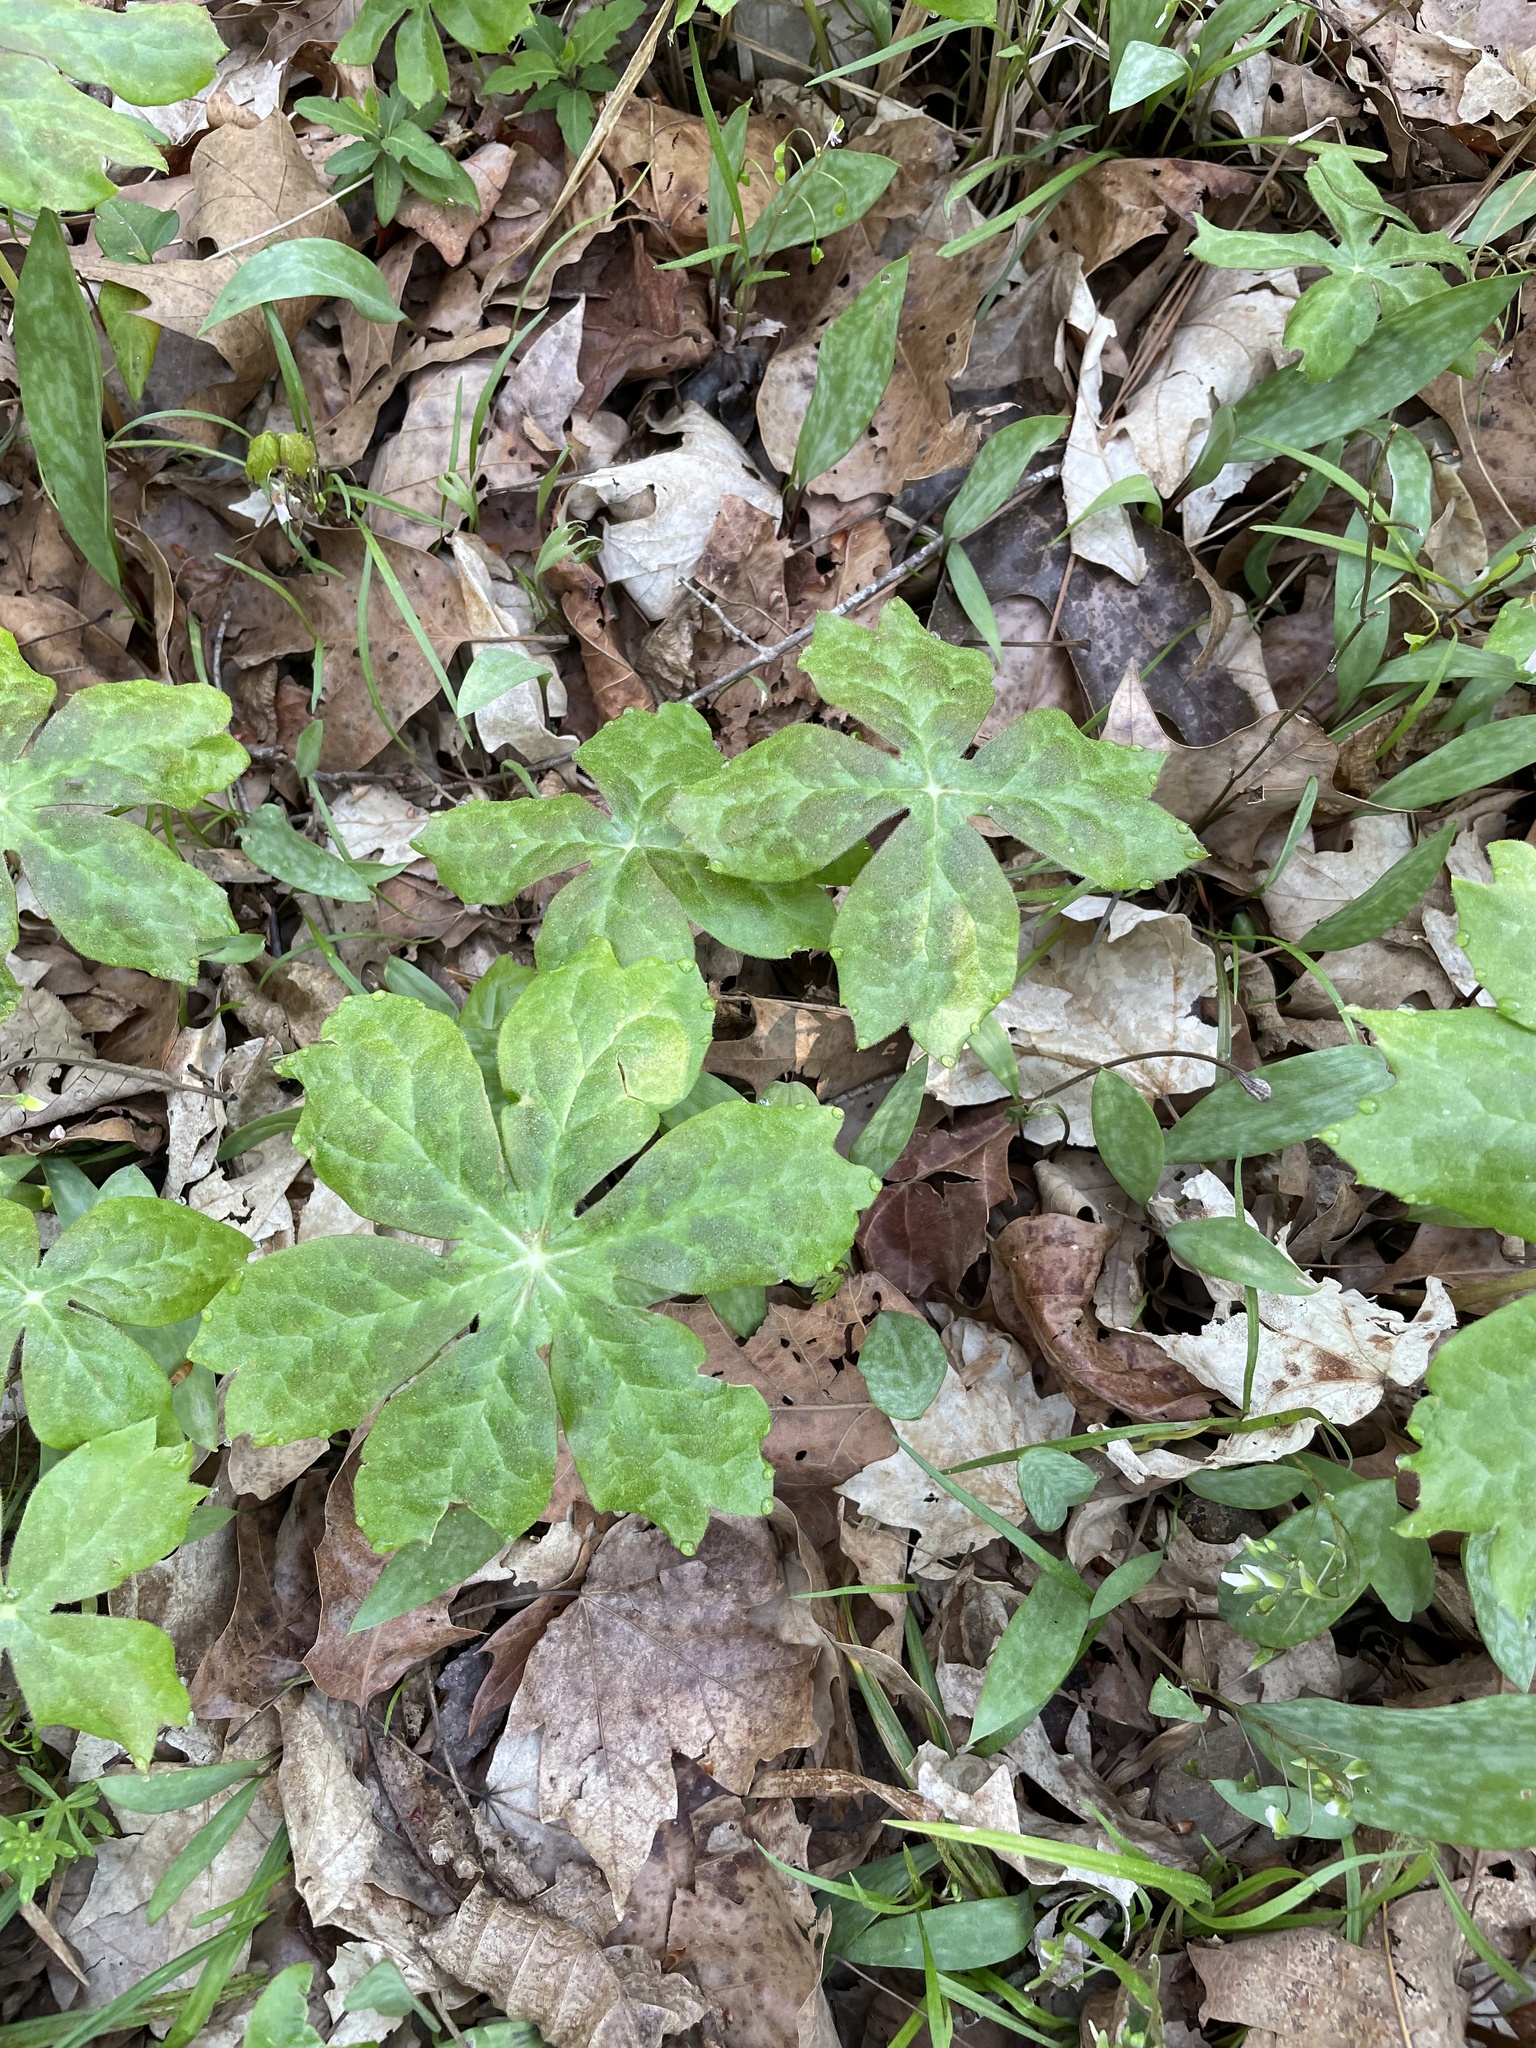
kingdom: Plantae
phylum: Tracheophyta
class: Magnoliopsida
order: Ranunculales
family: Berberidaceae
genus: Podophyllum
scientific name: Podophyllum peltatum
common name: Wild mandrake
